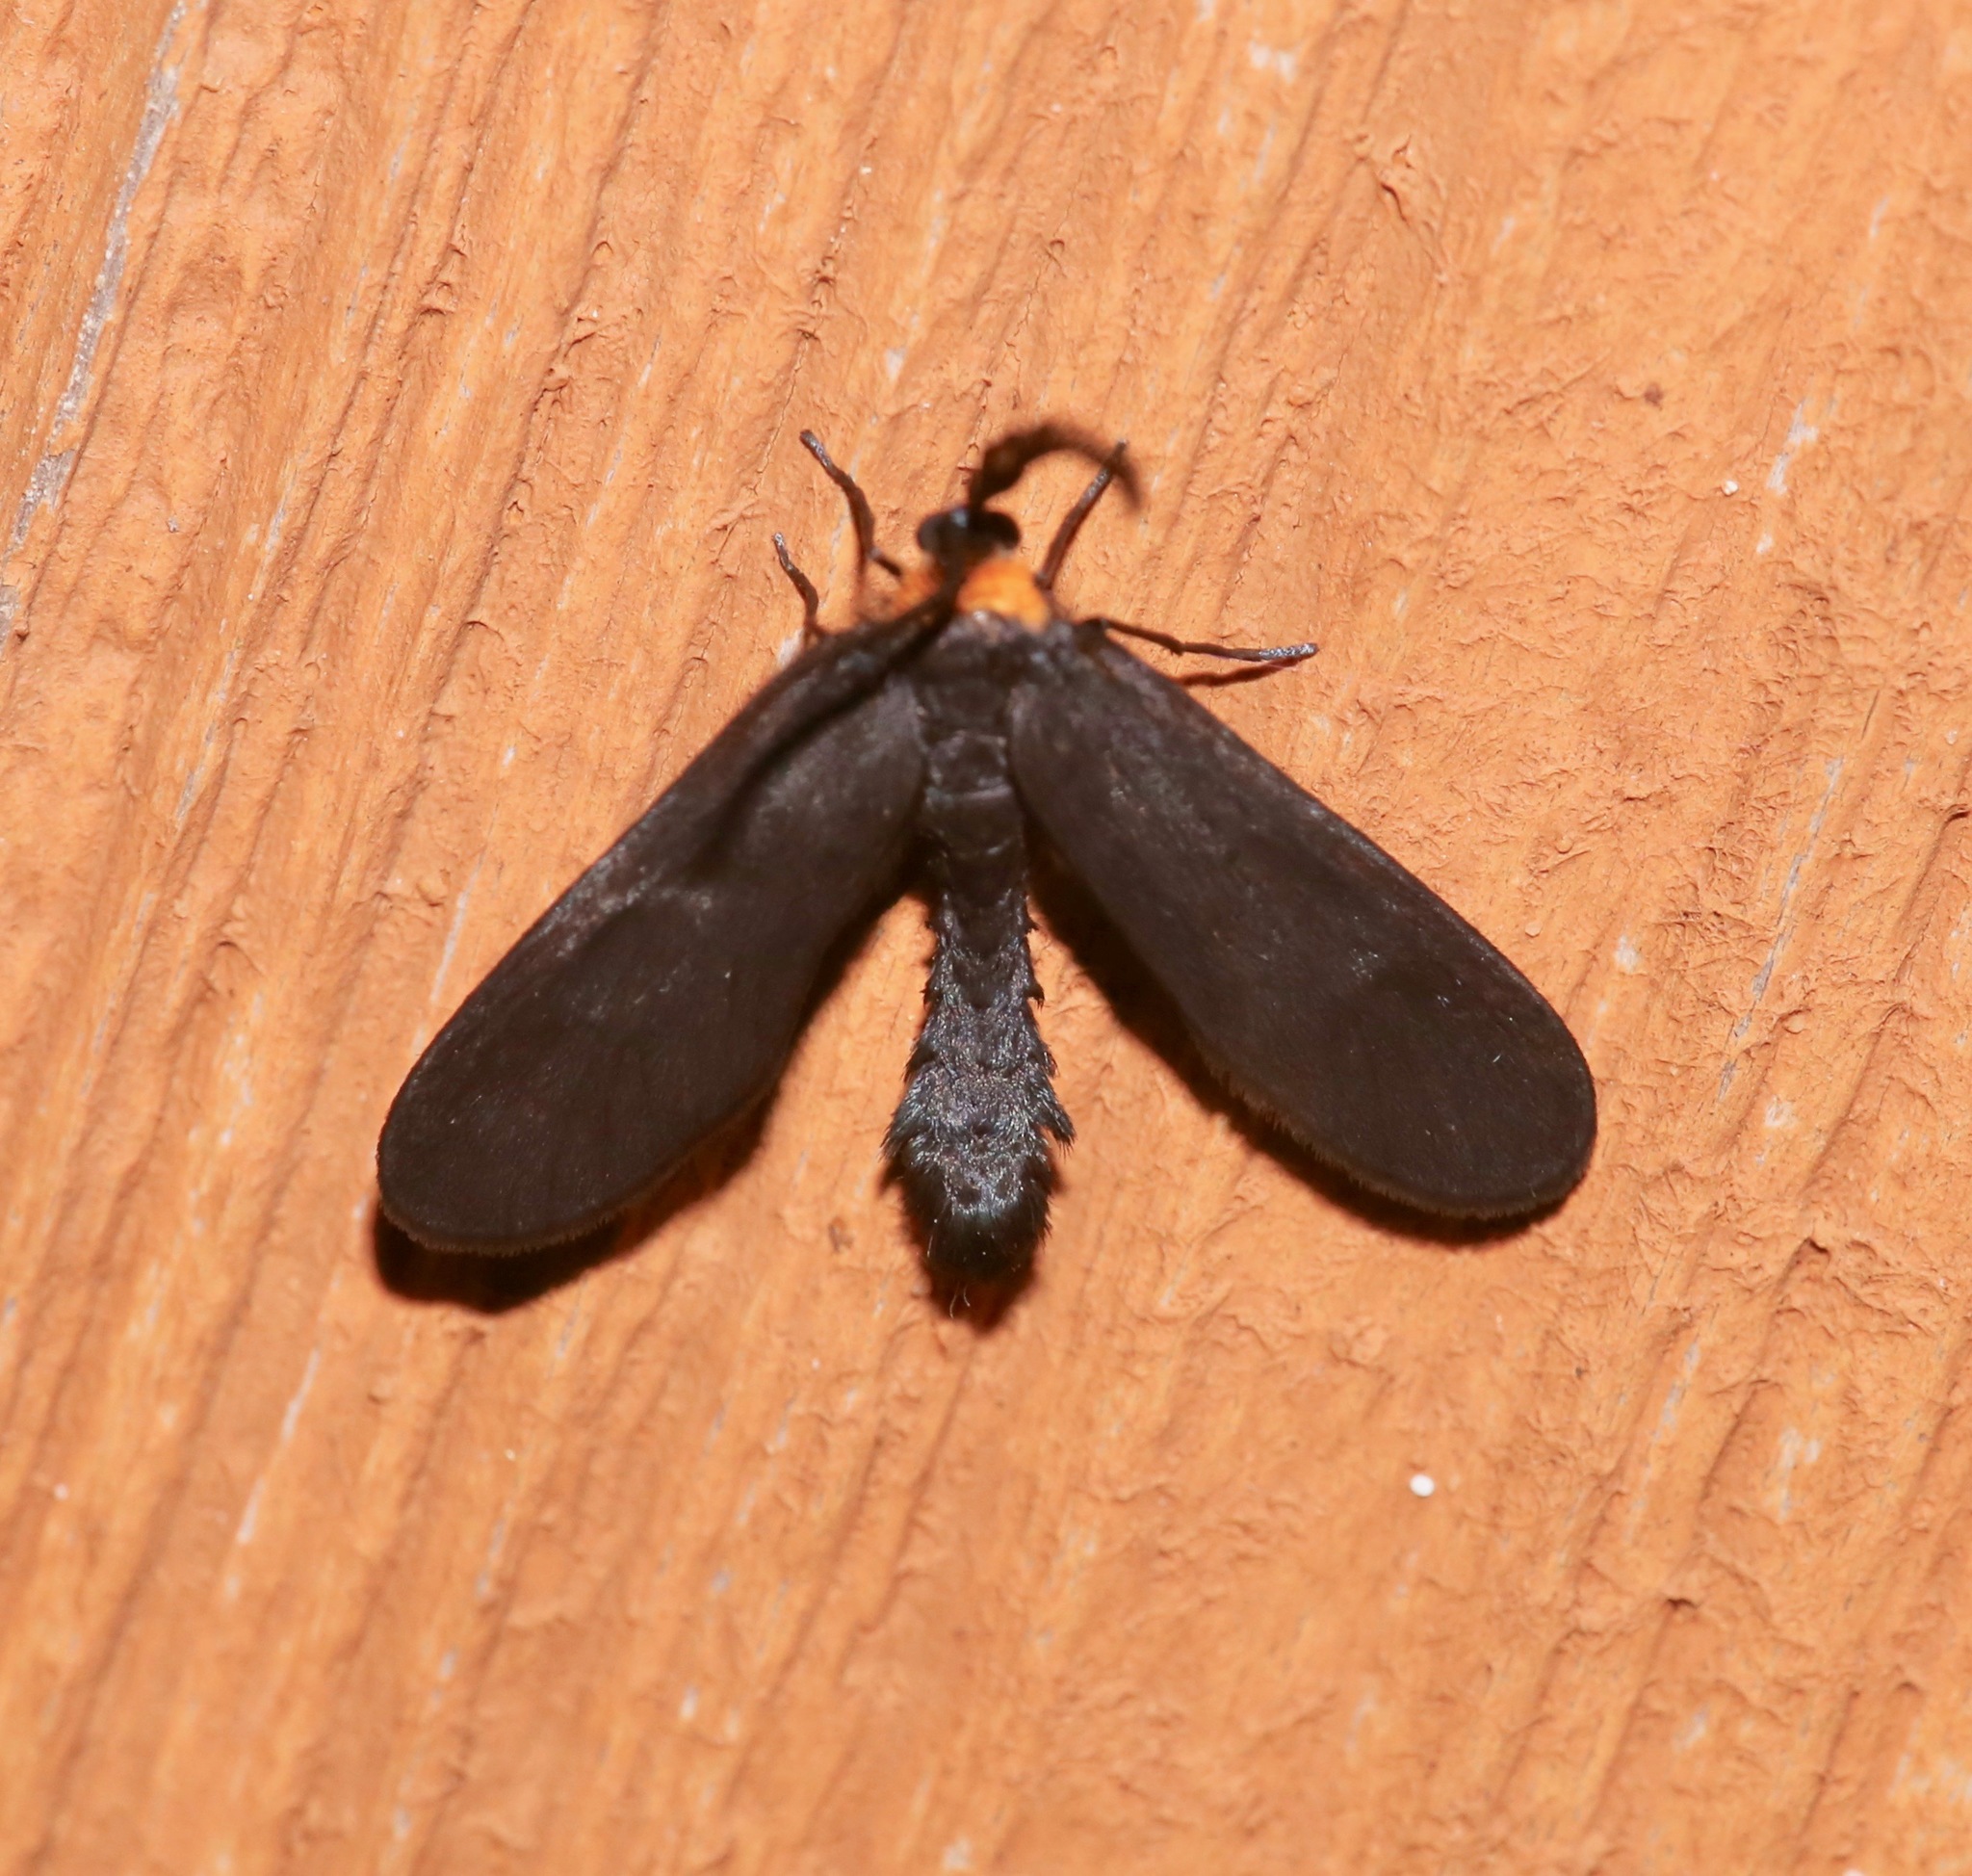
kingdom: Animalia
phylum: Arthropoda
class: Insecta
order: Lepidoptera
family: Zygaenidae
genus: Harrisina
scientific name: Harrisina americana
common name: Grapeleaf skeletonizer moth
